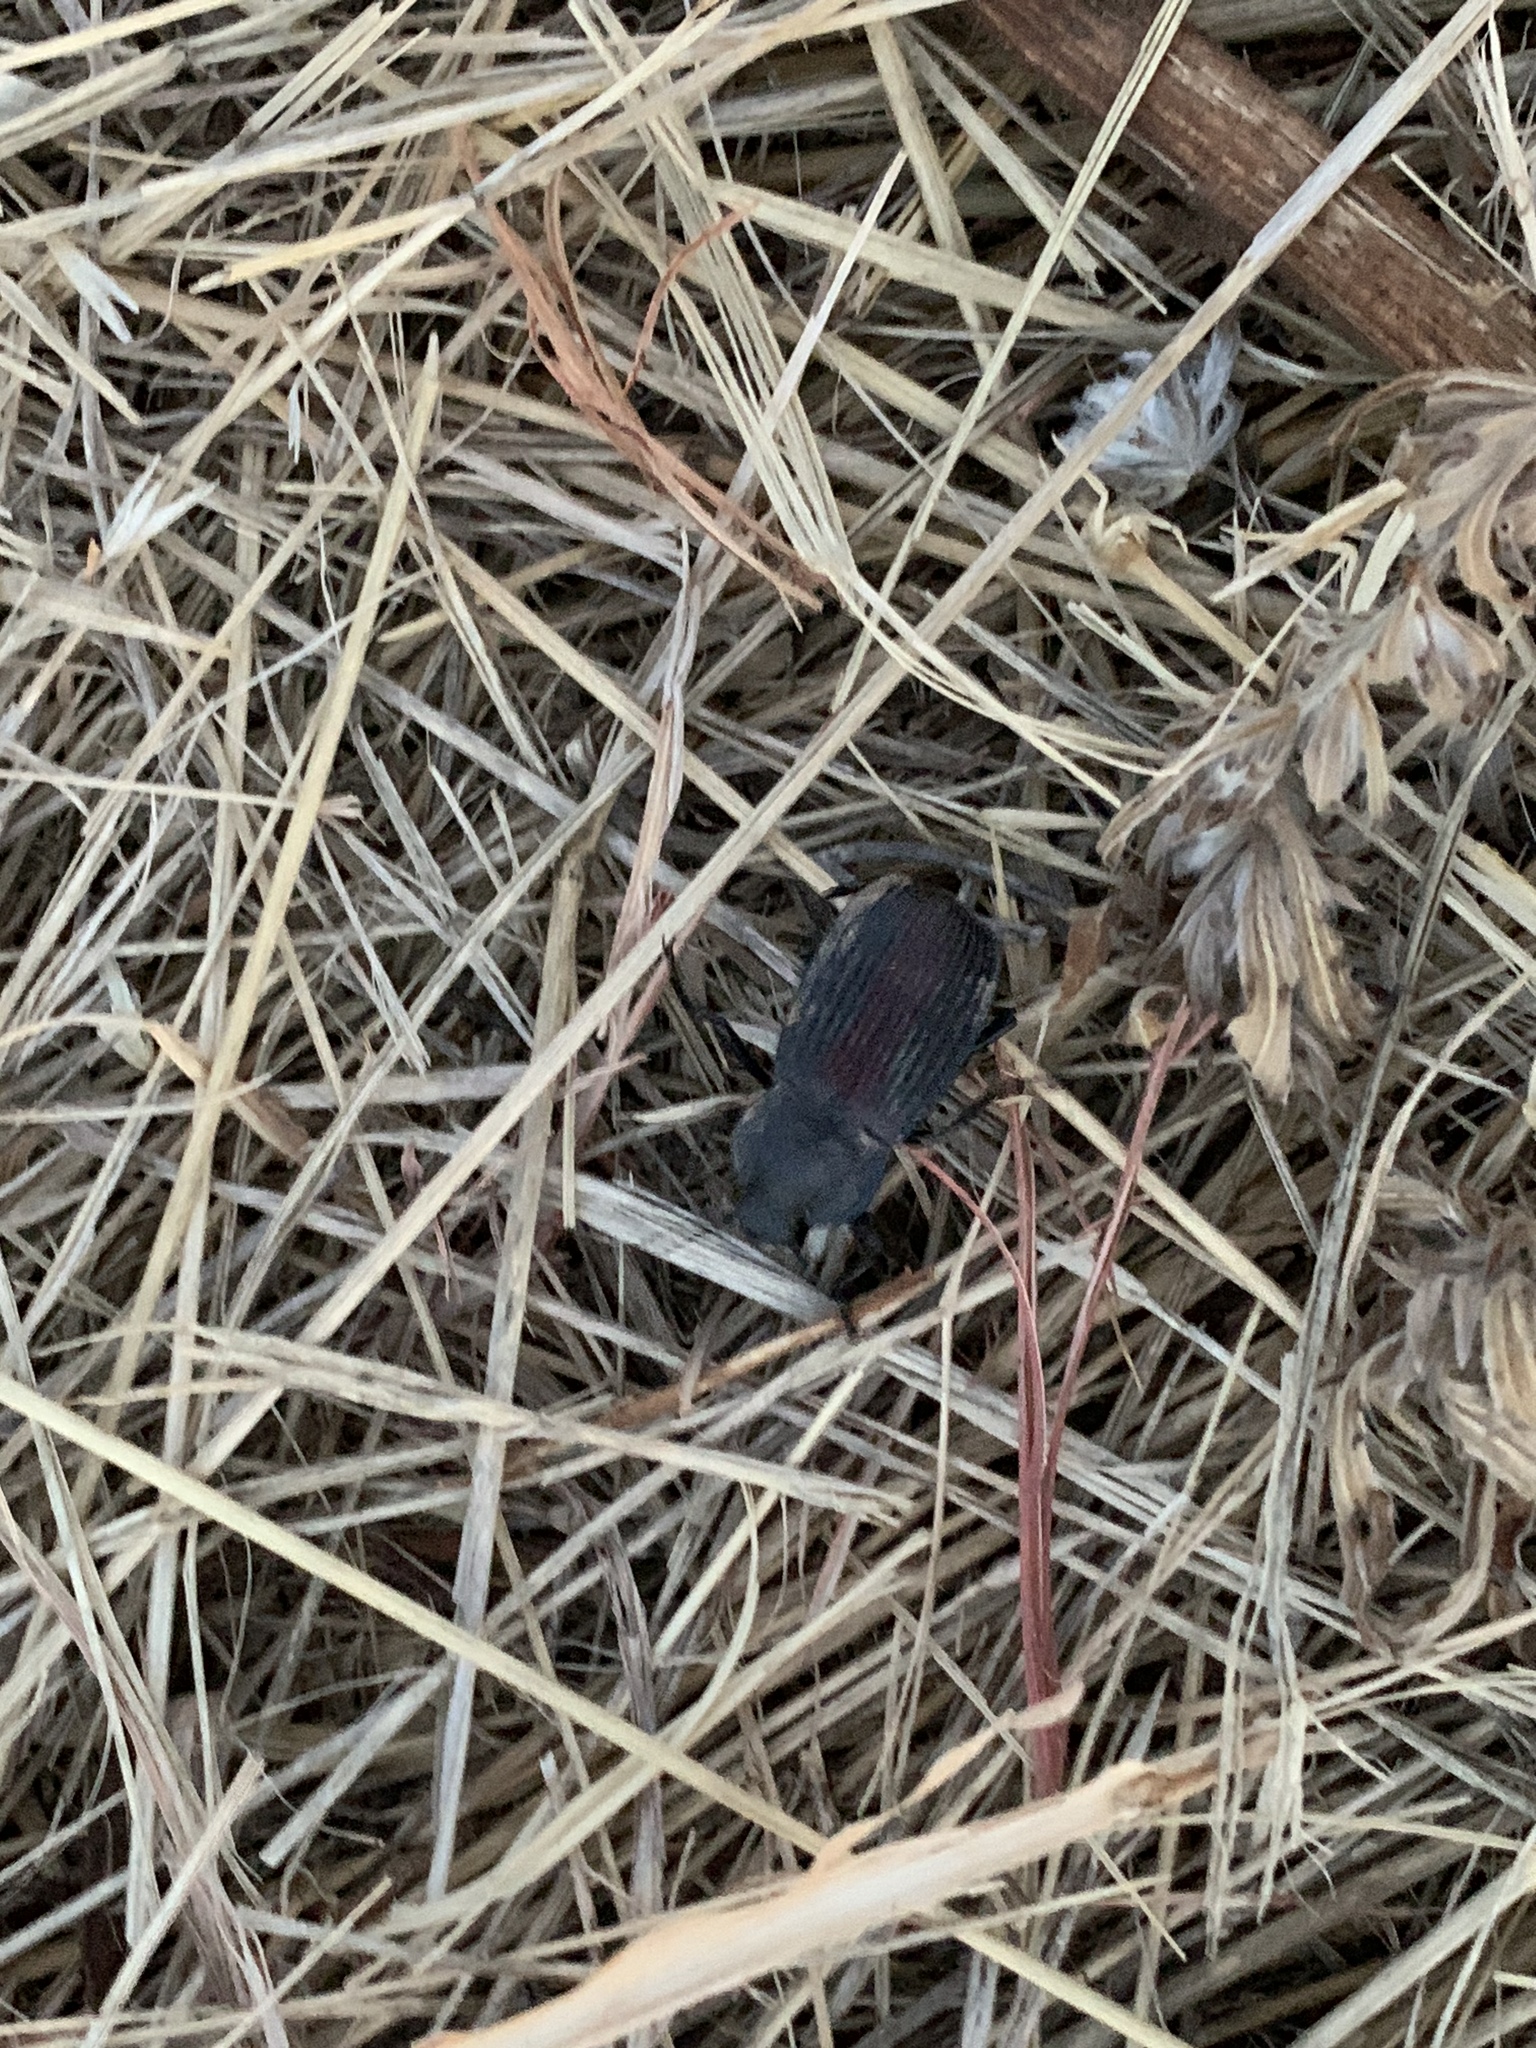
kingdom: Animalia
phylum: Arthropoda
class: Insecta
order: Coleoptera
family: Tenebrionidae
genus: Eleodes
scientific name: Eleodes suturalis
